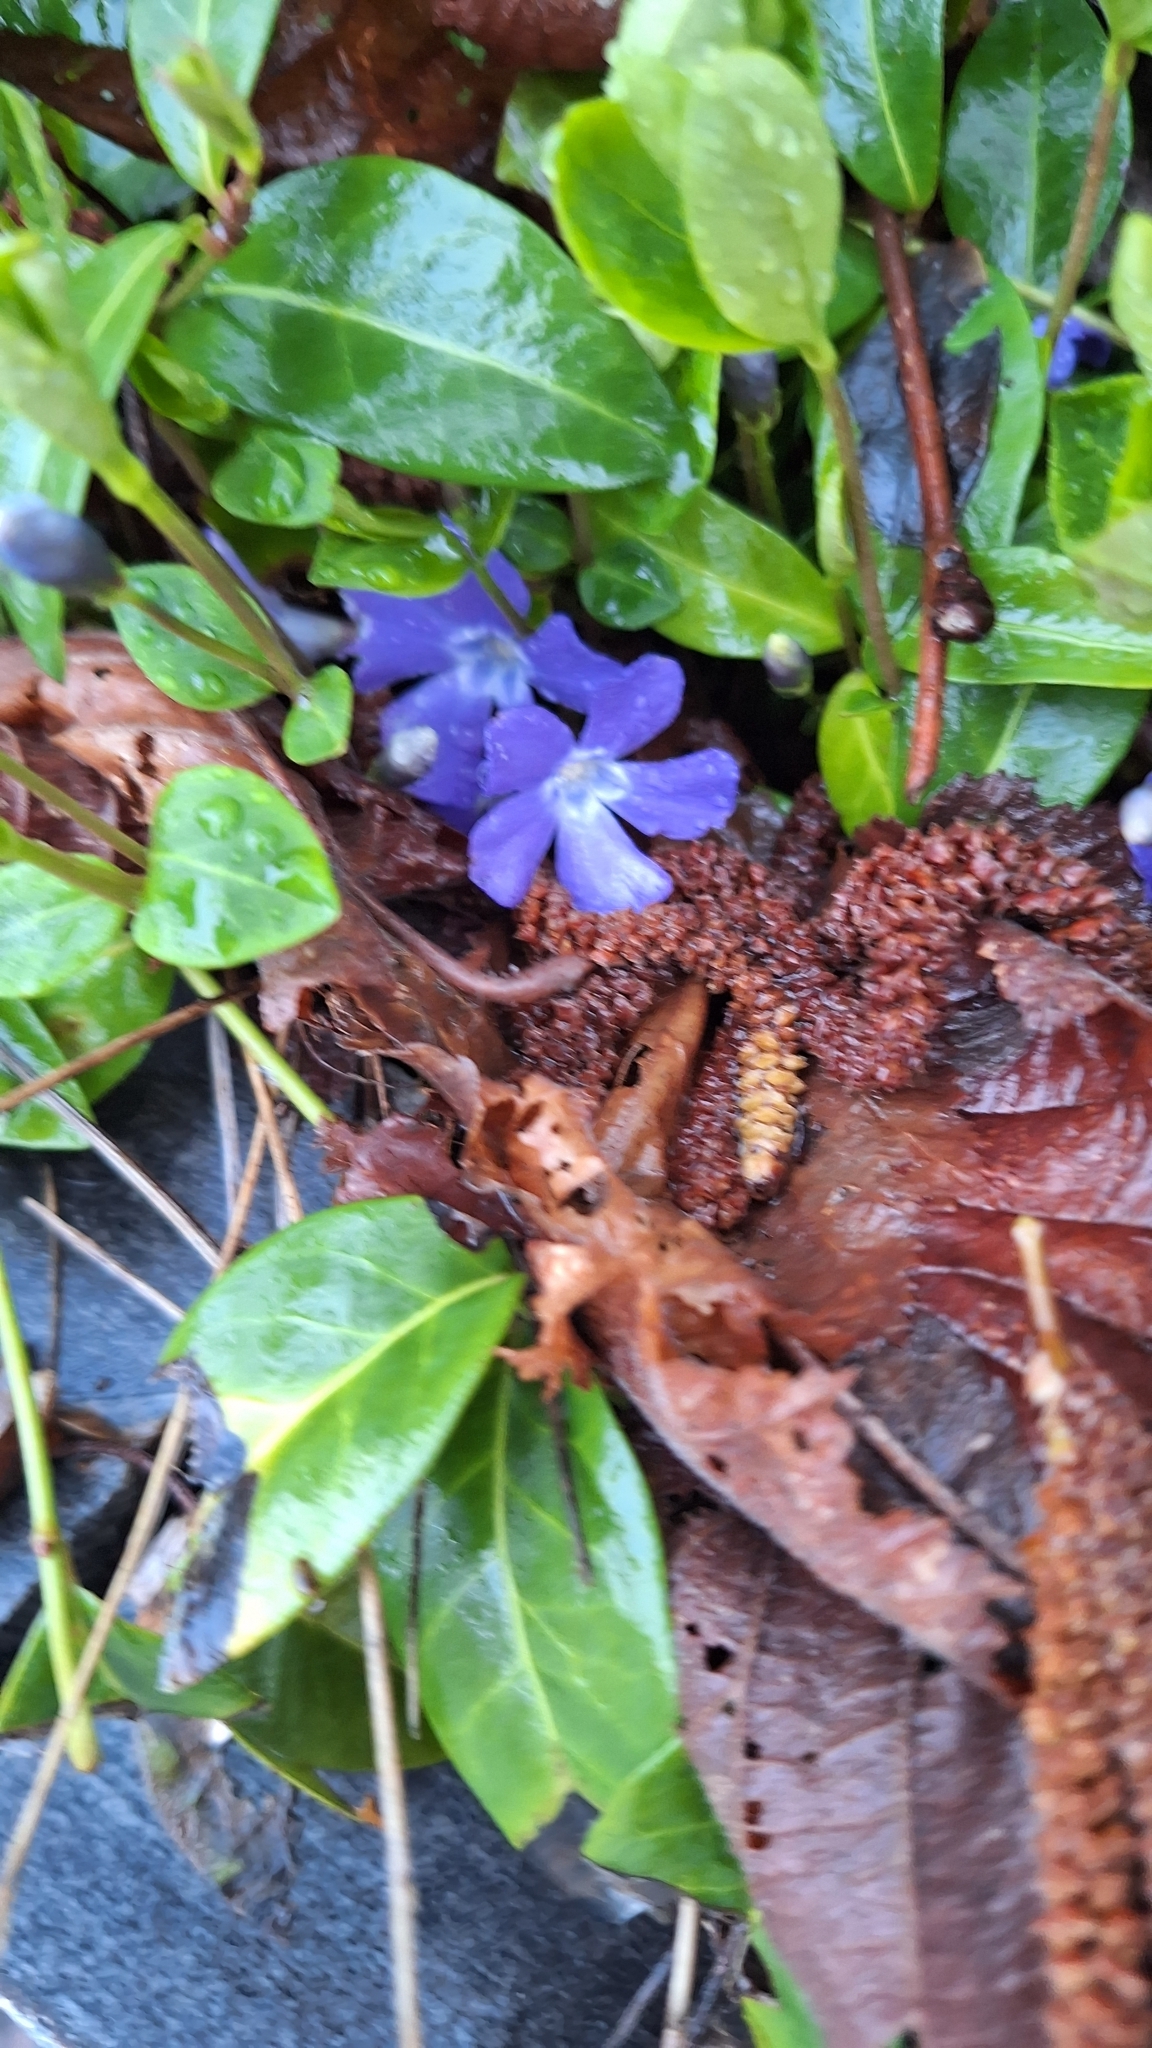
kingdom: Plantae
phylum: Tracheophyta
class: Magnoliopsida
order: Gentianales
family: Apocynaceae
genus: Vinca
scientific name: Vinca minor
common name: Lesser periwinkle
